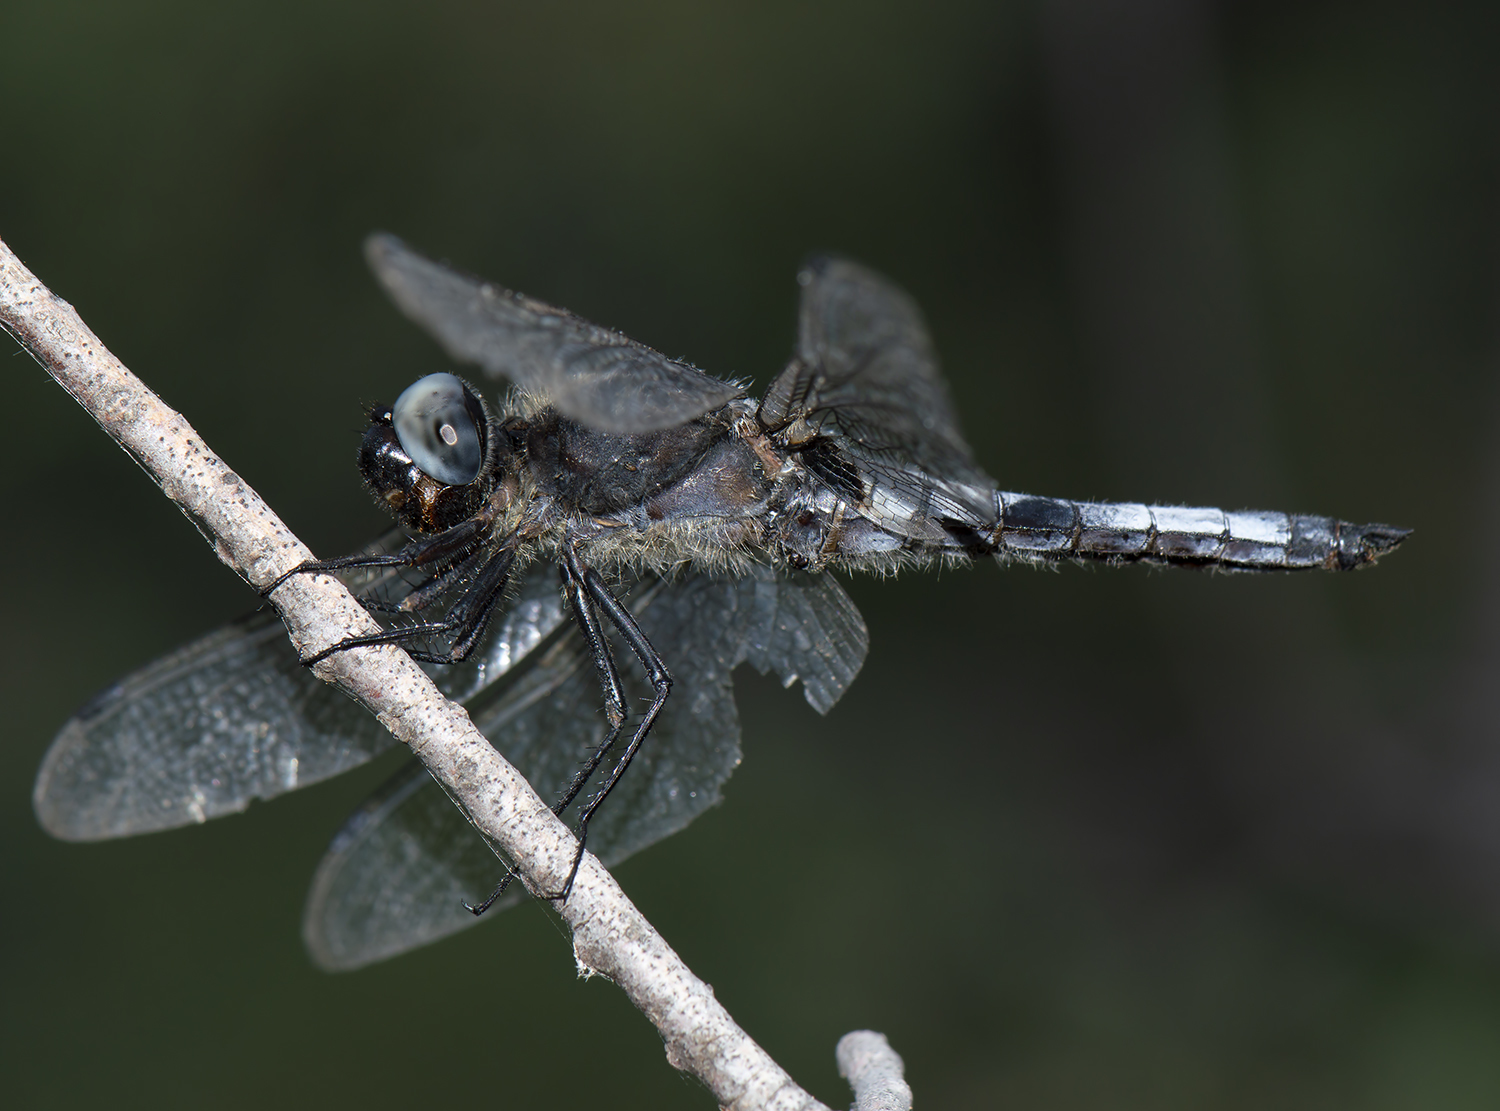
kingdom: Animalia
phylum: Arthropoda
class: Insecta
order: Odonata
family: Libellulidae
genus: Libellula
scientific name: Libellula fulva
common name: Blue chaser
